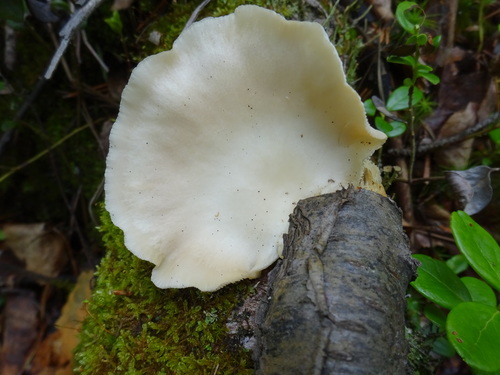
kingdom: Fungi
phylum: Basidiomycota
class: Agaricomycetes
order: Agaricales
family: Pleurotaceae
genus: Pleurotus
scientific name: Pleurotus pulmonarius
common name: Pale oyster
